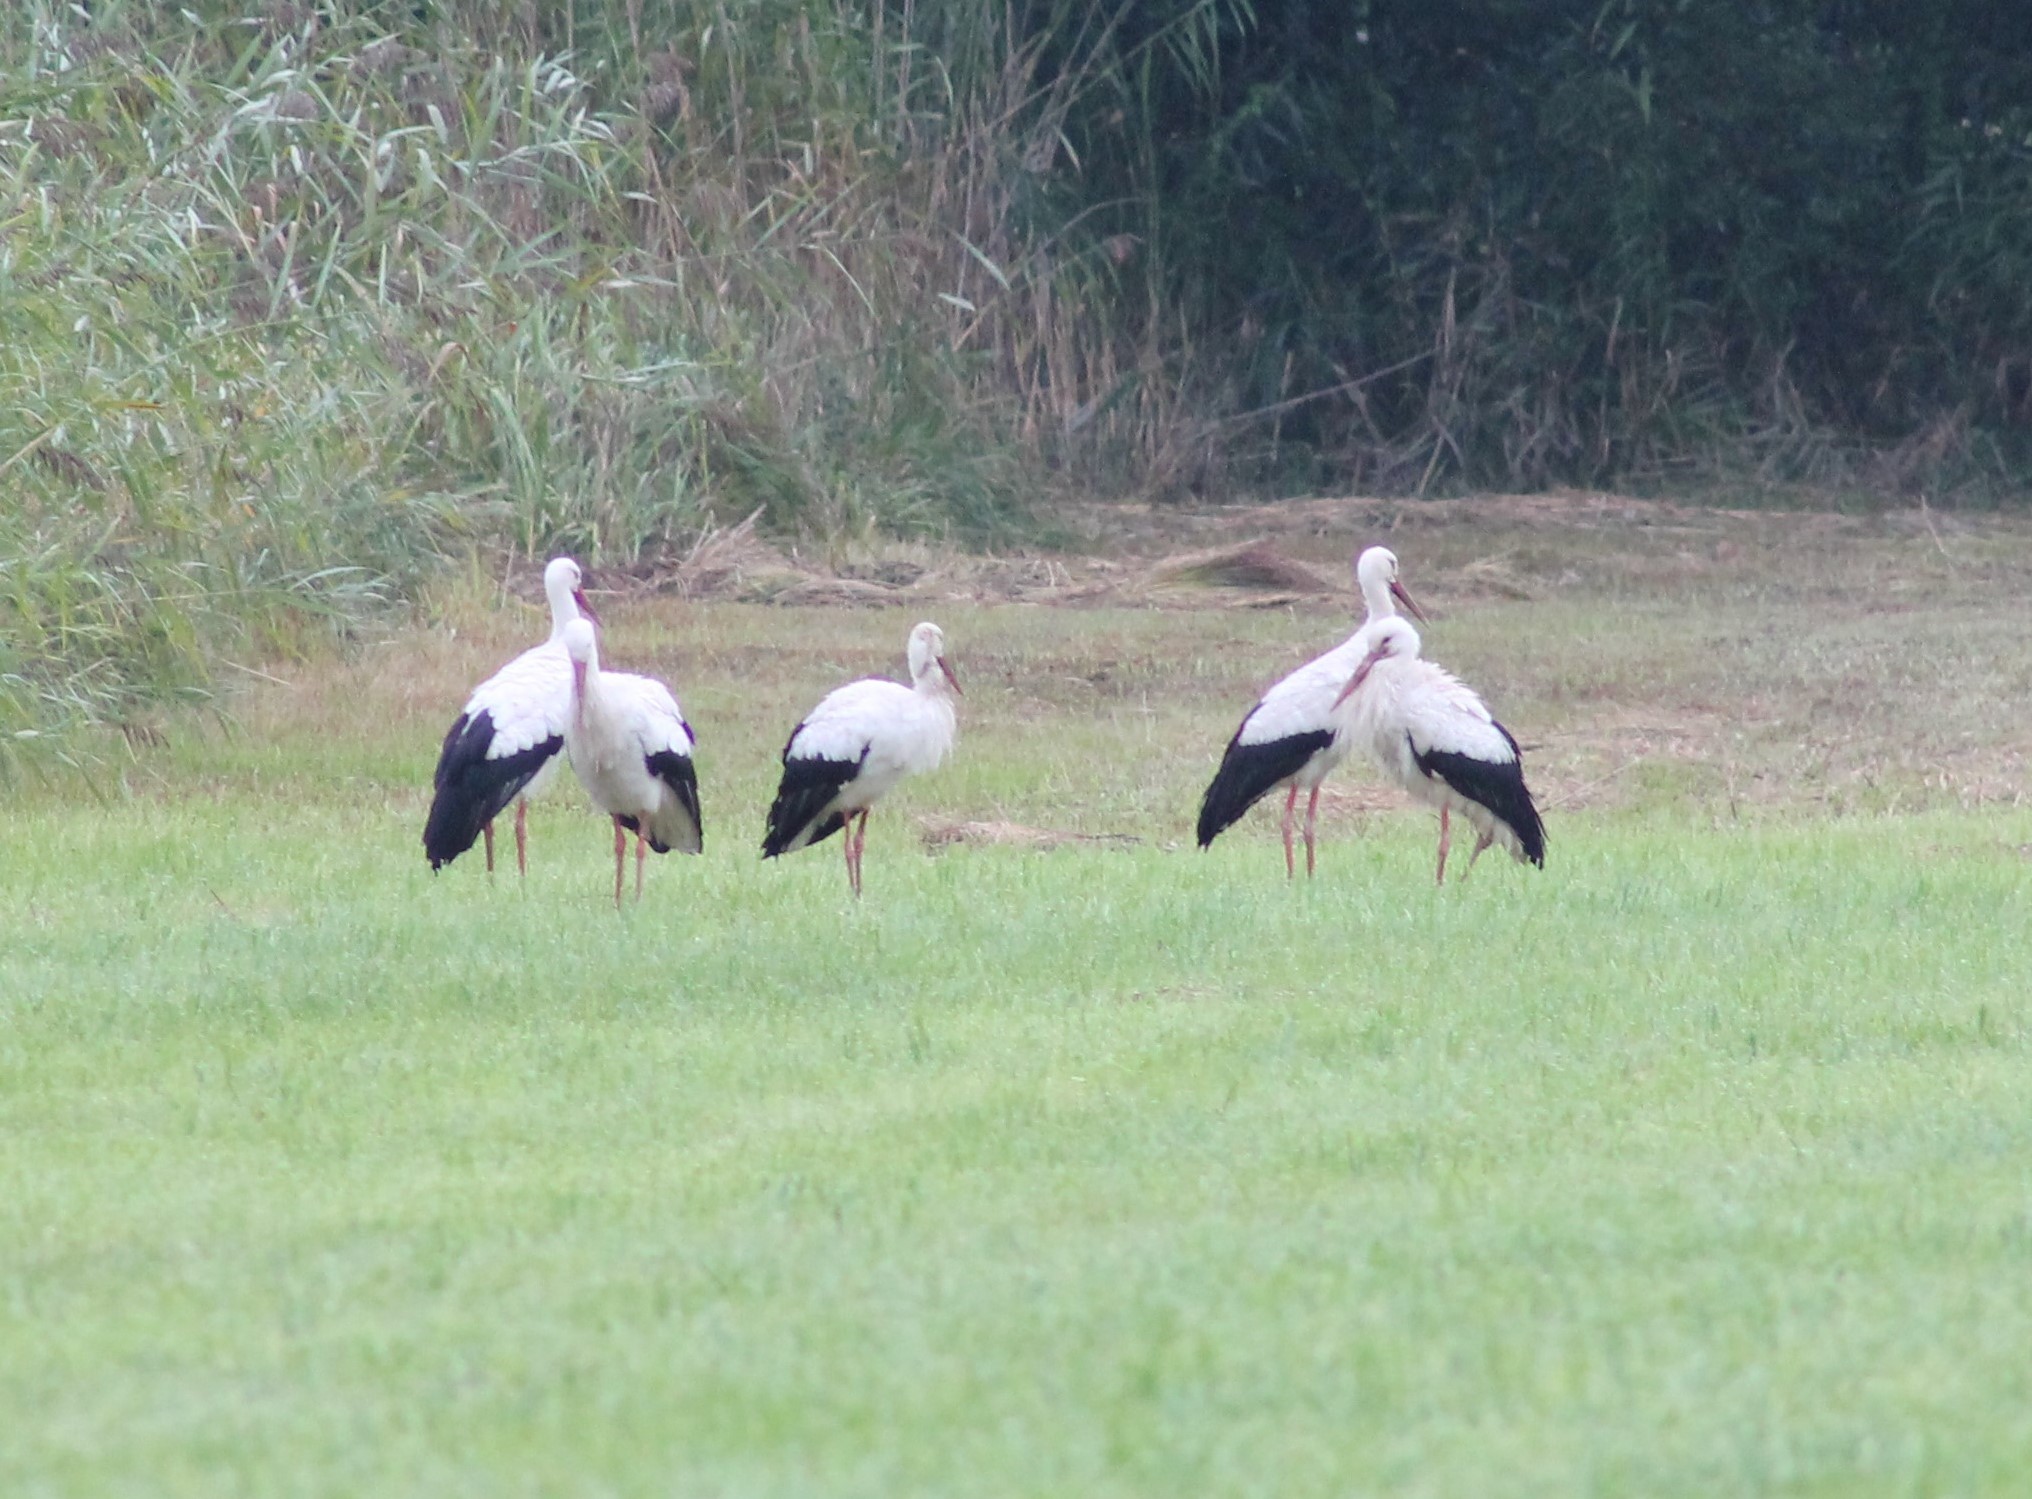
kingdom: Animalia
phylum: Chordata
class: Aves
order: Ciconiiformes
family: Ciconiidae
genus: Ciconia
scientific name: Ciconia ciconia
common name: White stork
